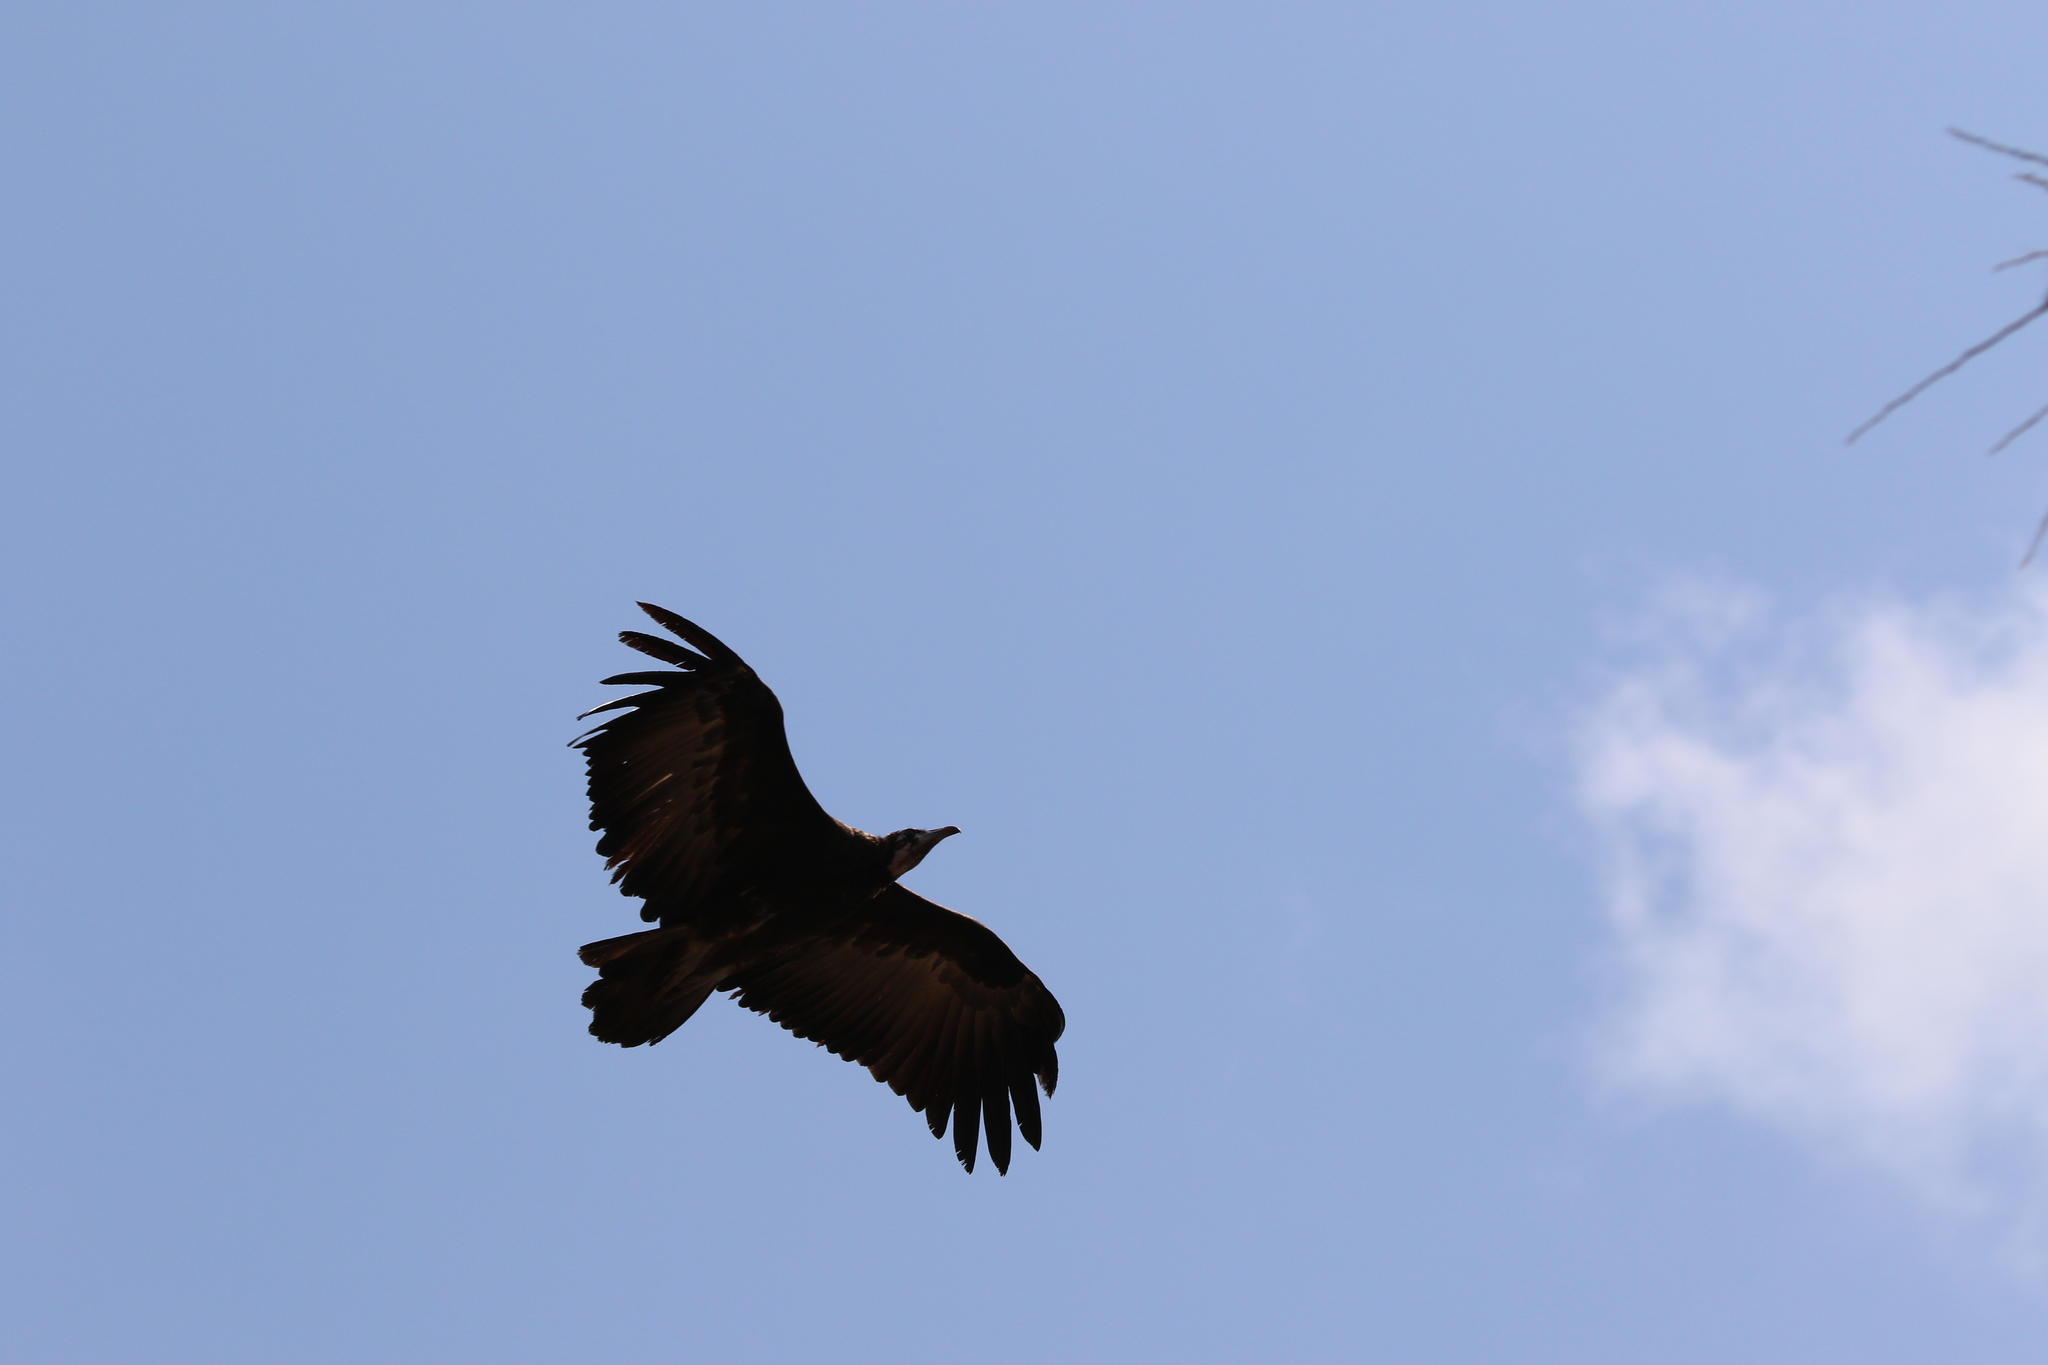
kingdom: Animalia
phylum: Chordata
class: Aves
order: Accipitriformes
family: Accipitridae
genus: Necrosyrtes
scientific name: Necrosyrtes monachus
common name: Hooded vulture
